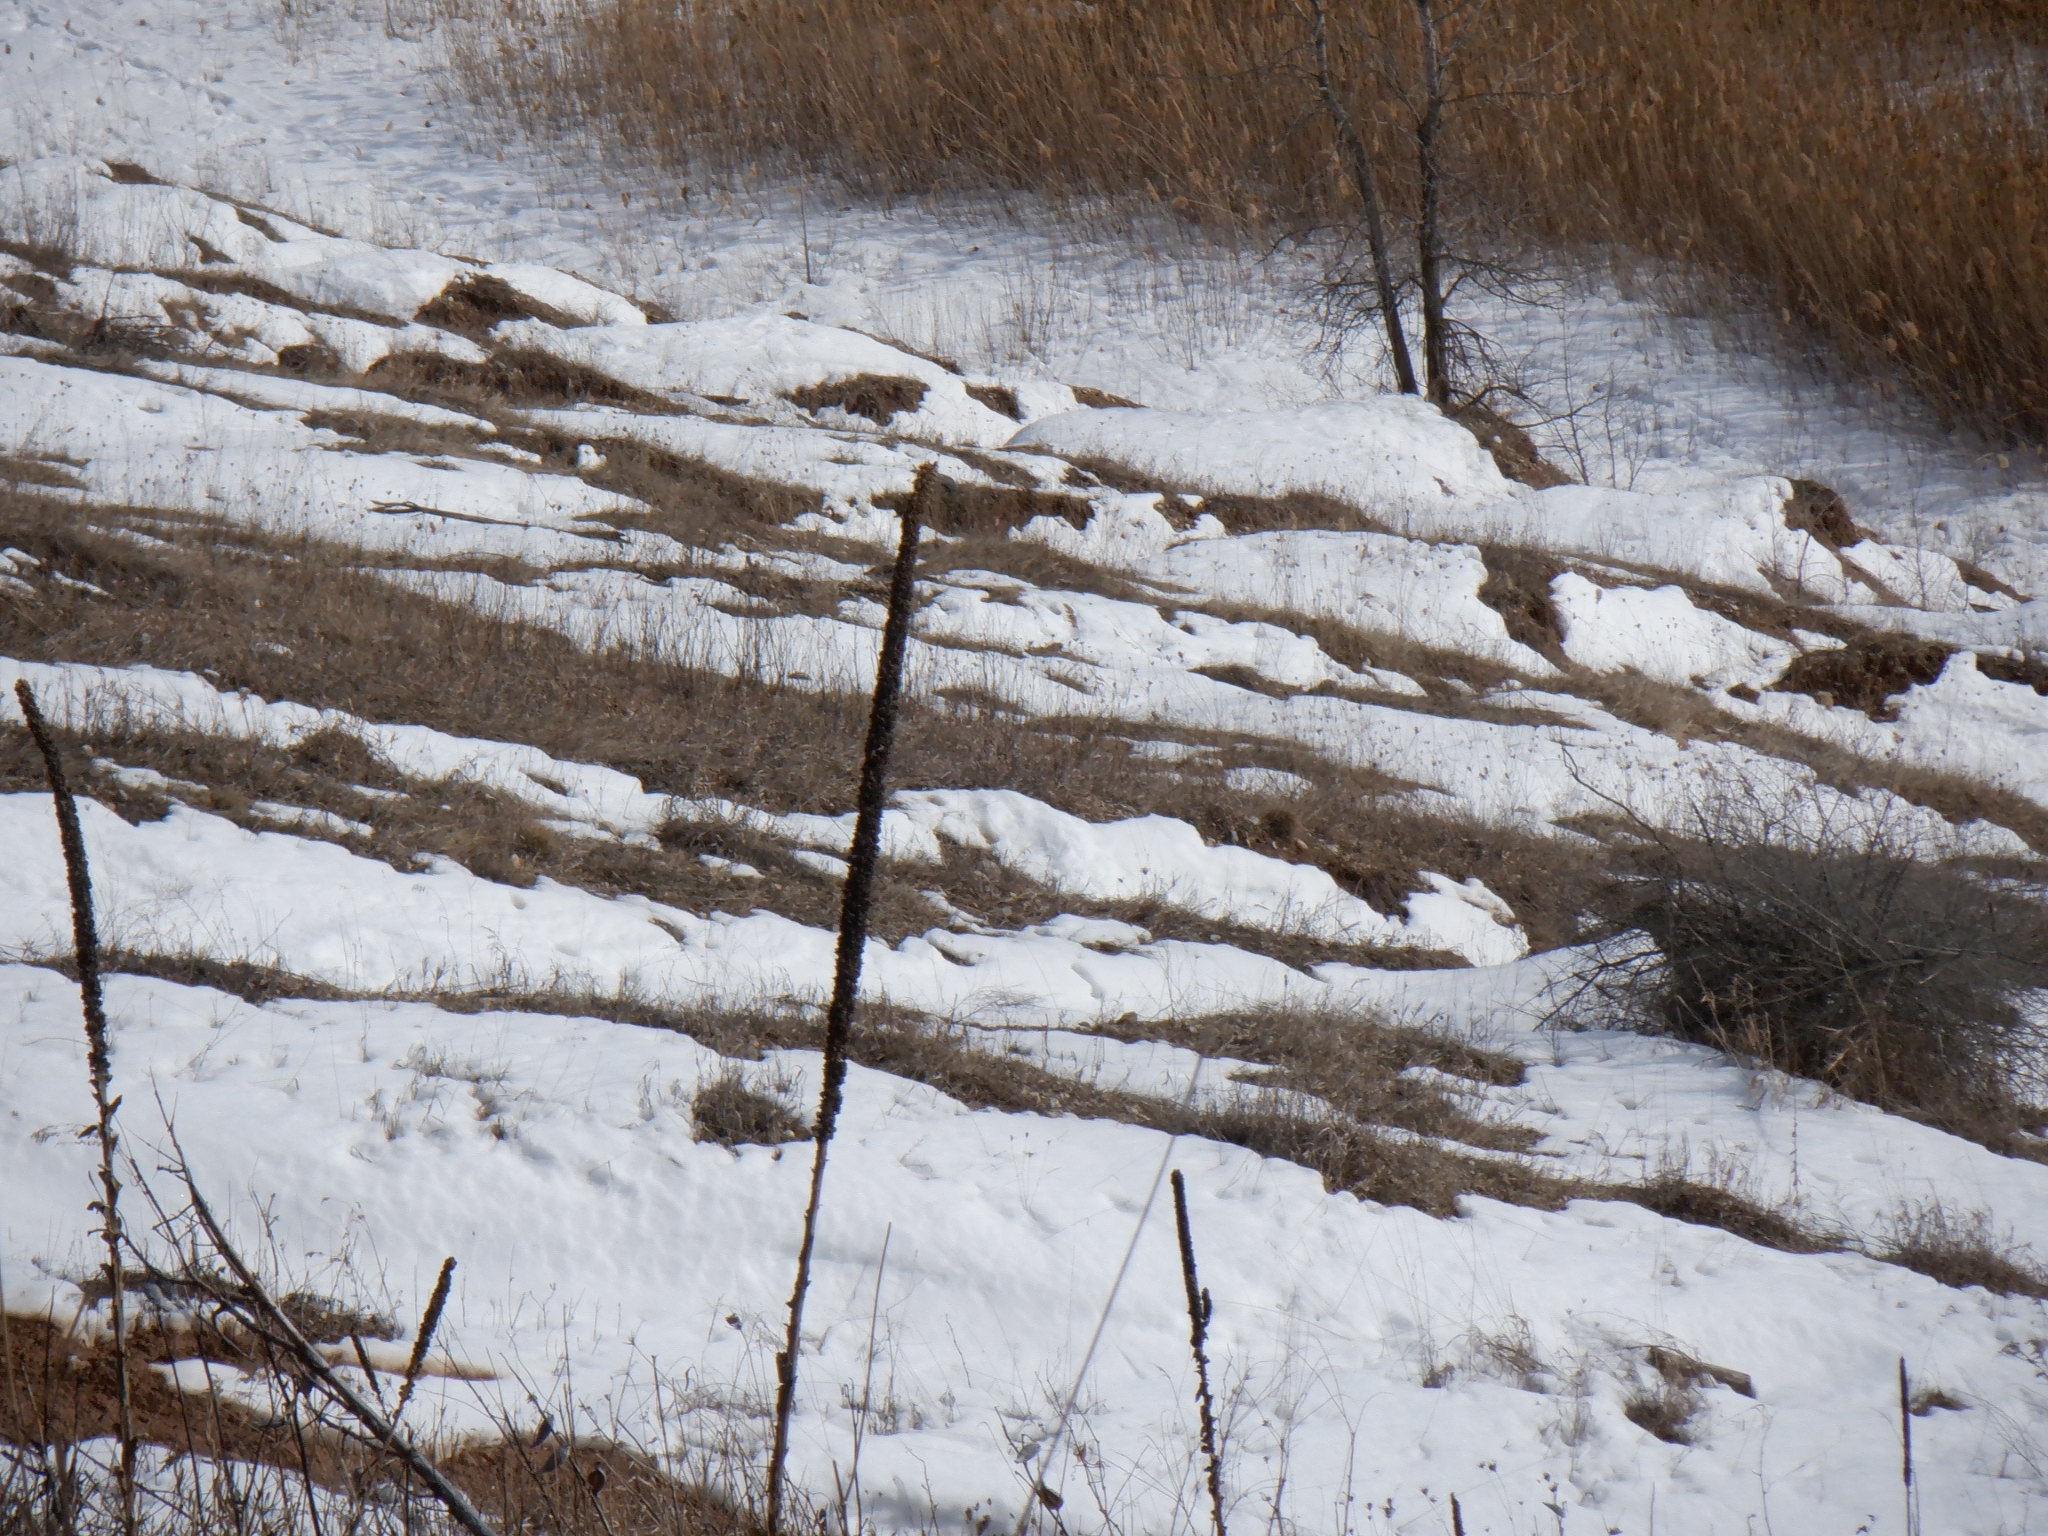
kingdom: Plantae
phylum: Tracheophyta
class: Magnoliopsida
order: Lamiales
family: Scrophulariaceae
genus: Verbascum
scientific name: Verbascum thapsus
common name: Common mullein
